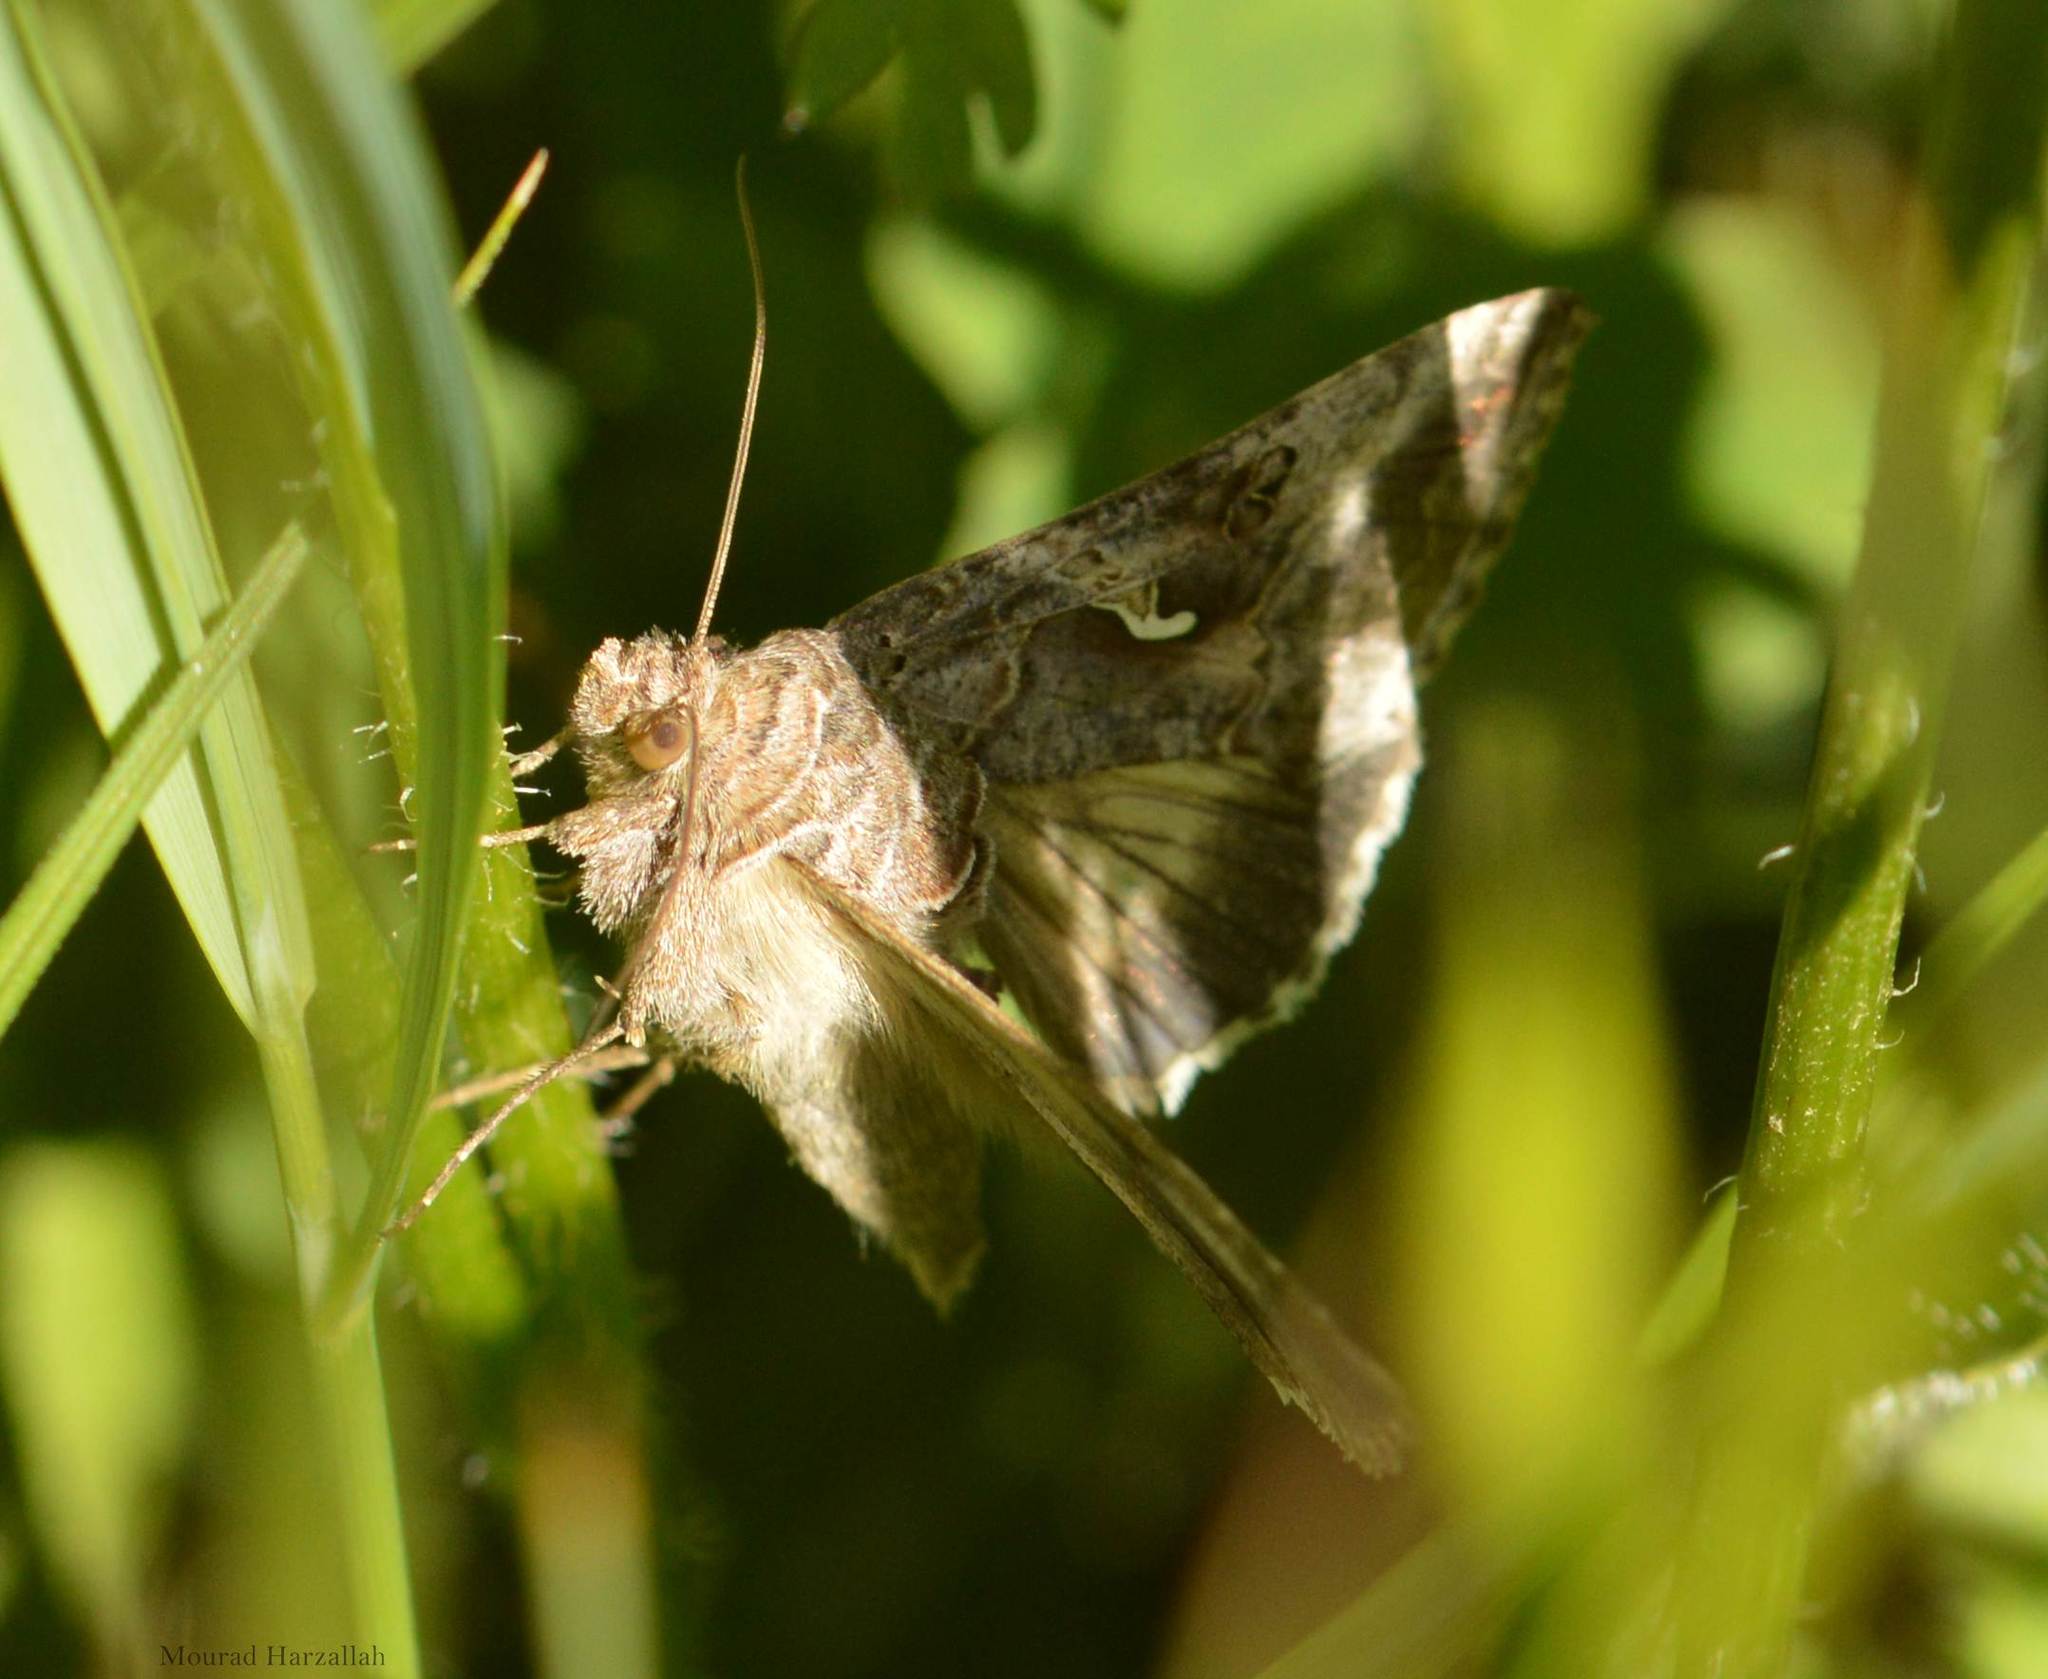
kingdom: Animalia
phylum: Arthropoda
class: Insecta
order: Lepidoptera
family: Noctuidae
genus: Autographa
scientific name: Autographa gamma
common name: Silver y
